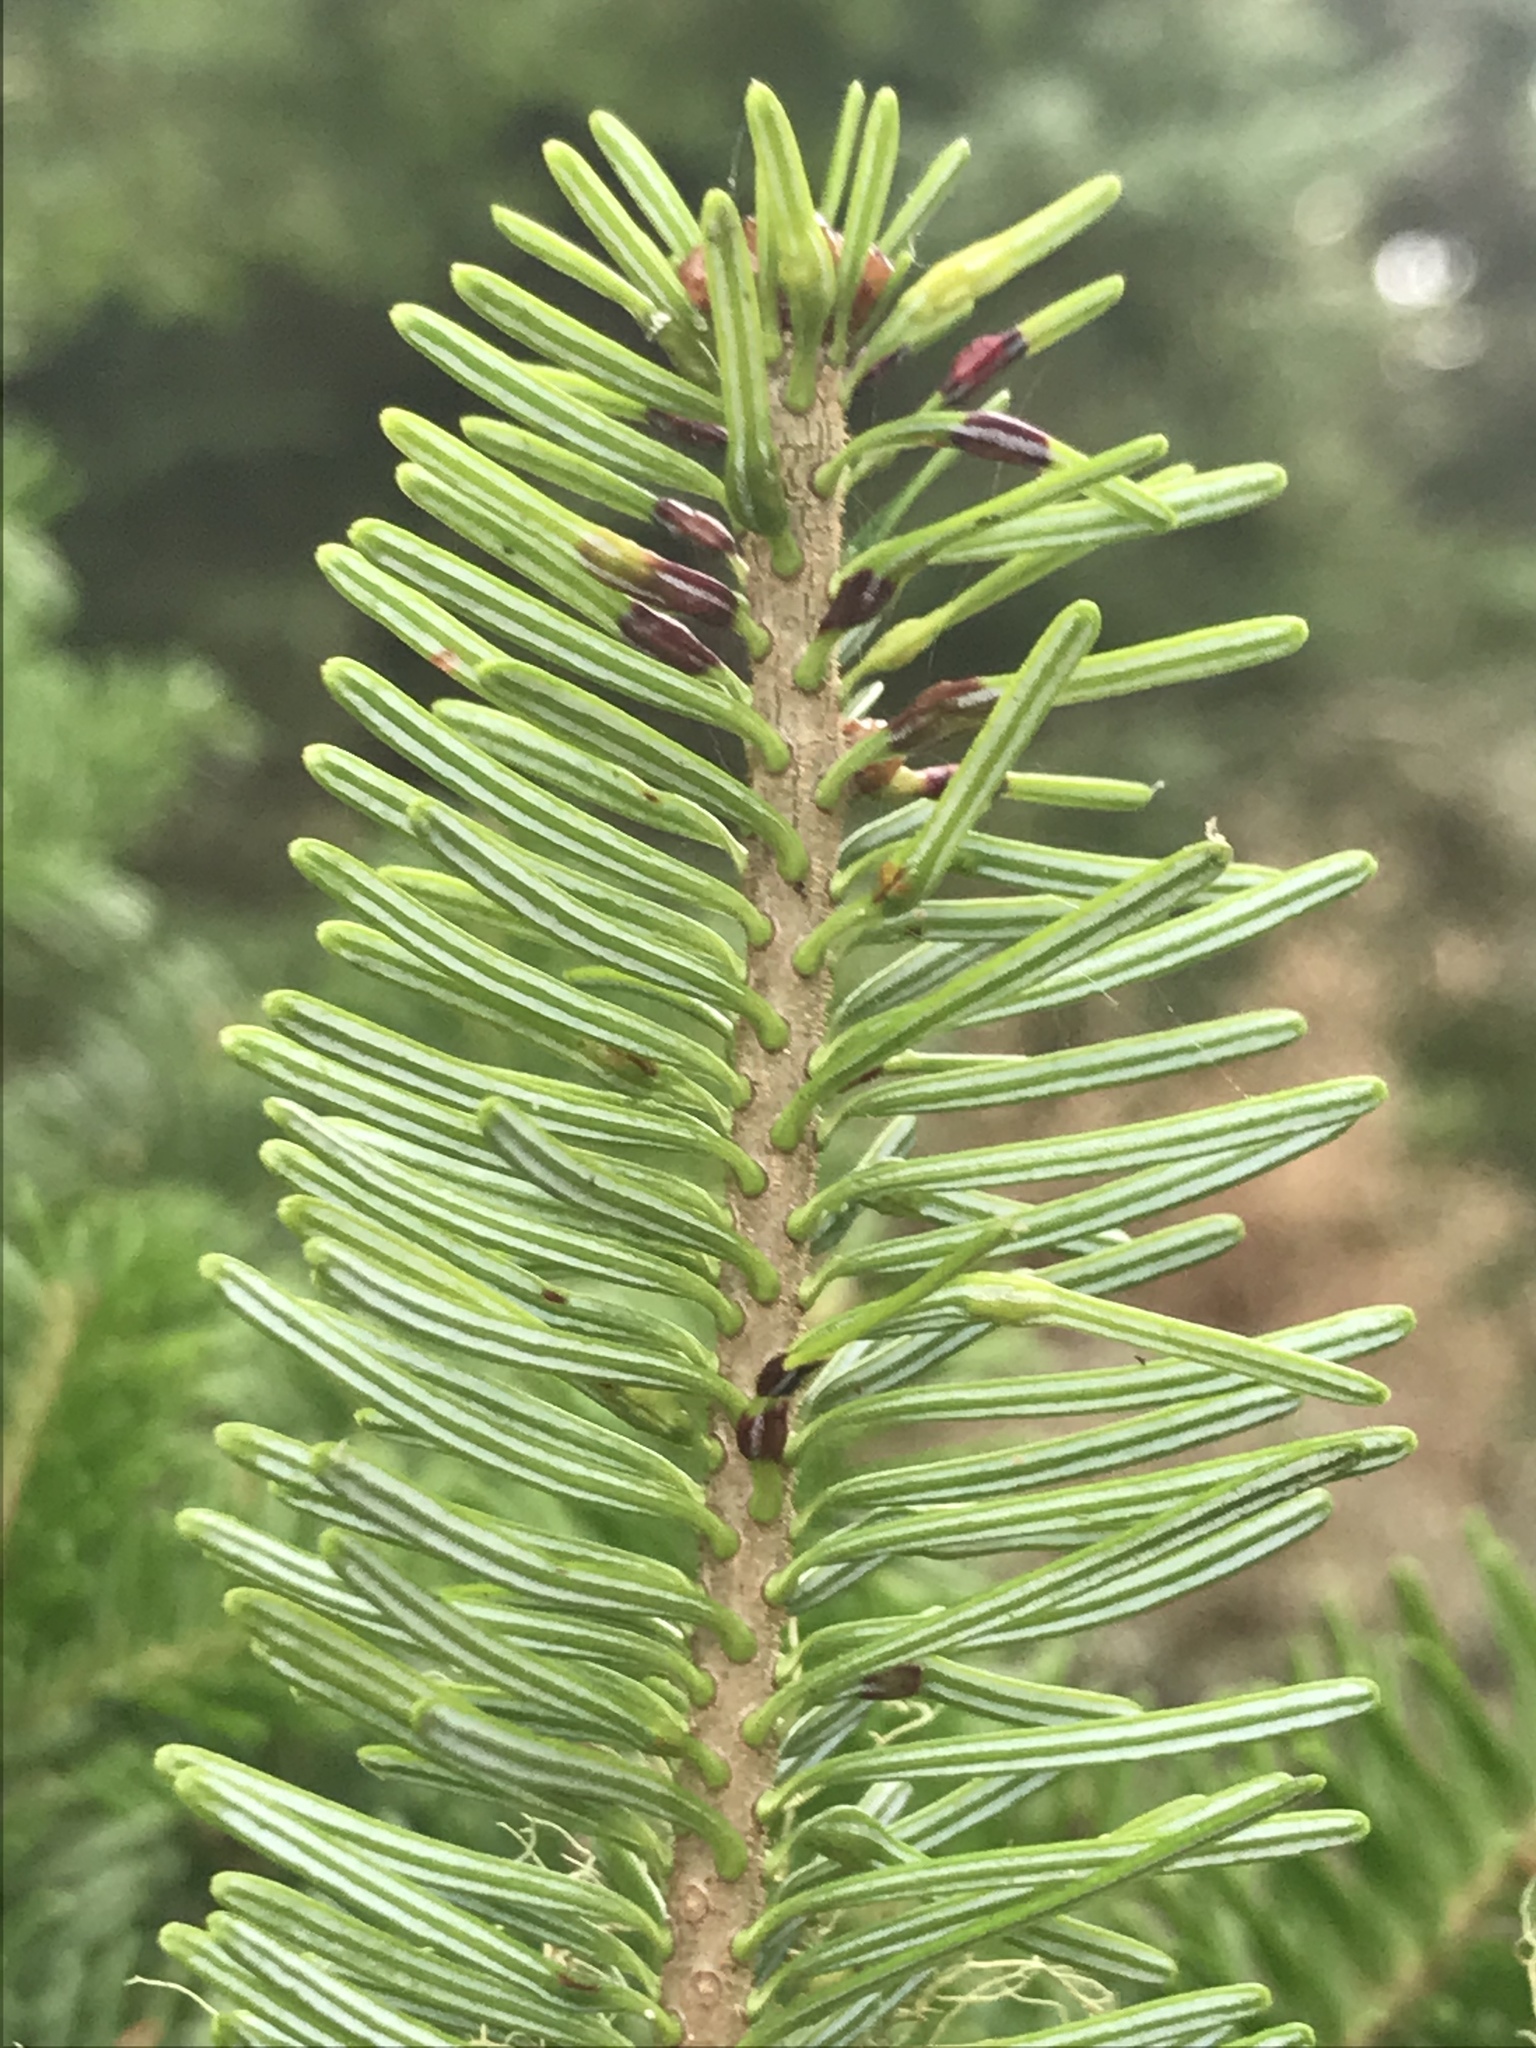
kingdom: Plantae
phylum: Tracheophyta
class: Pinopsida
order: Pinales
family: Pinaceae
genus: Abies
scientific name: Abies balsamea
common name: Balsam fir
